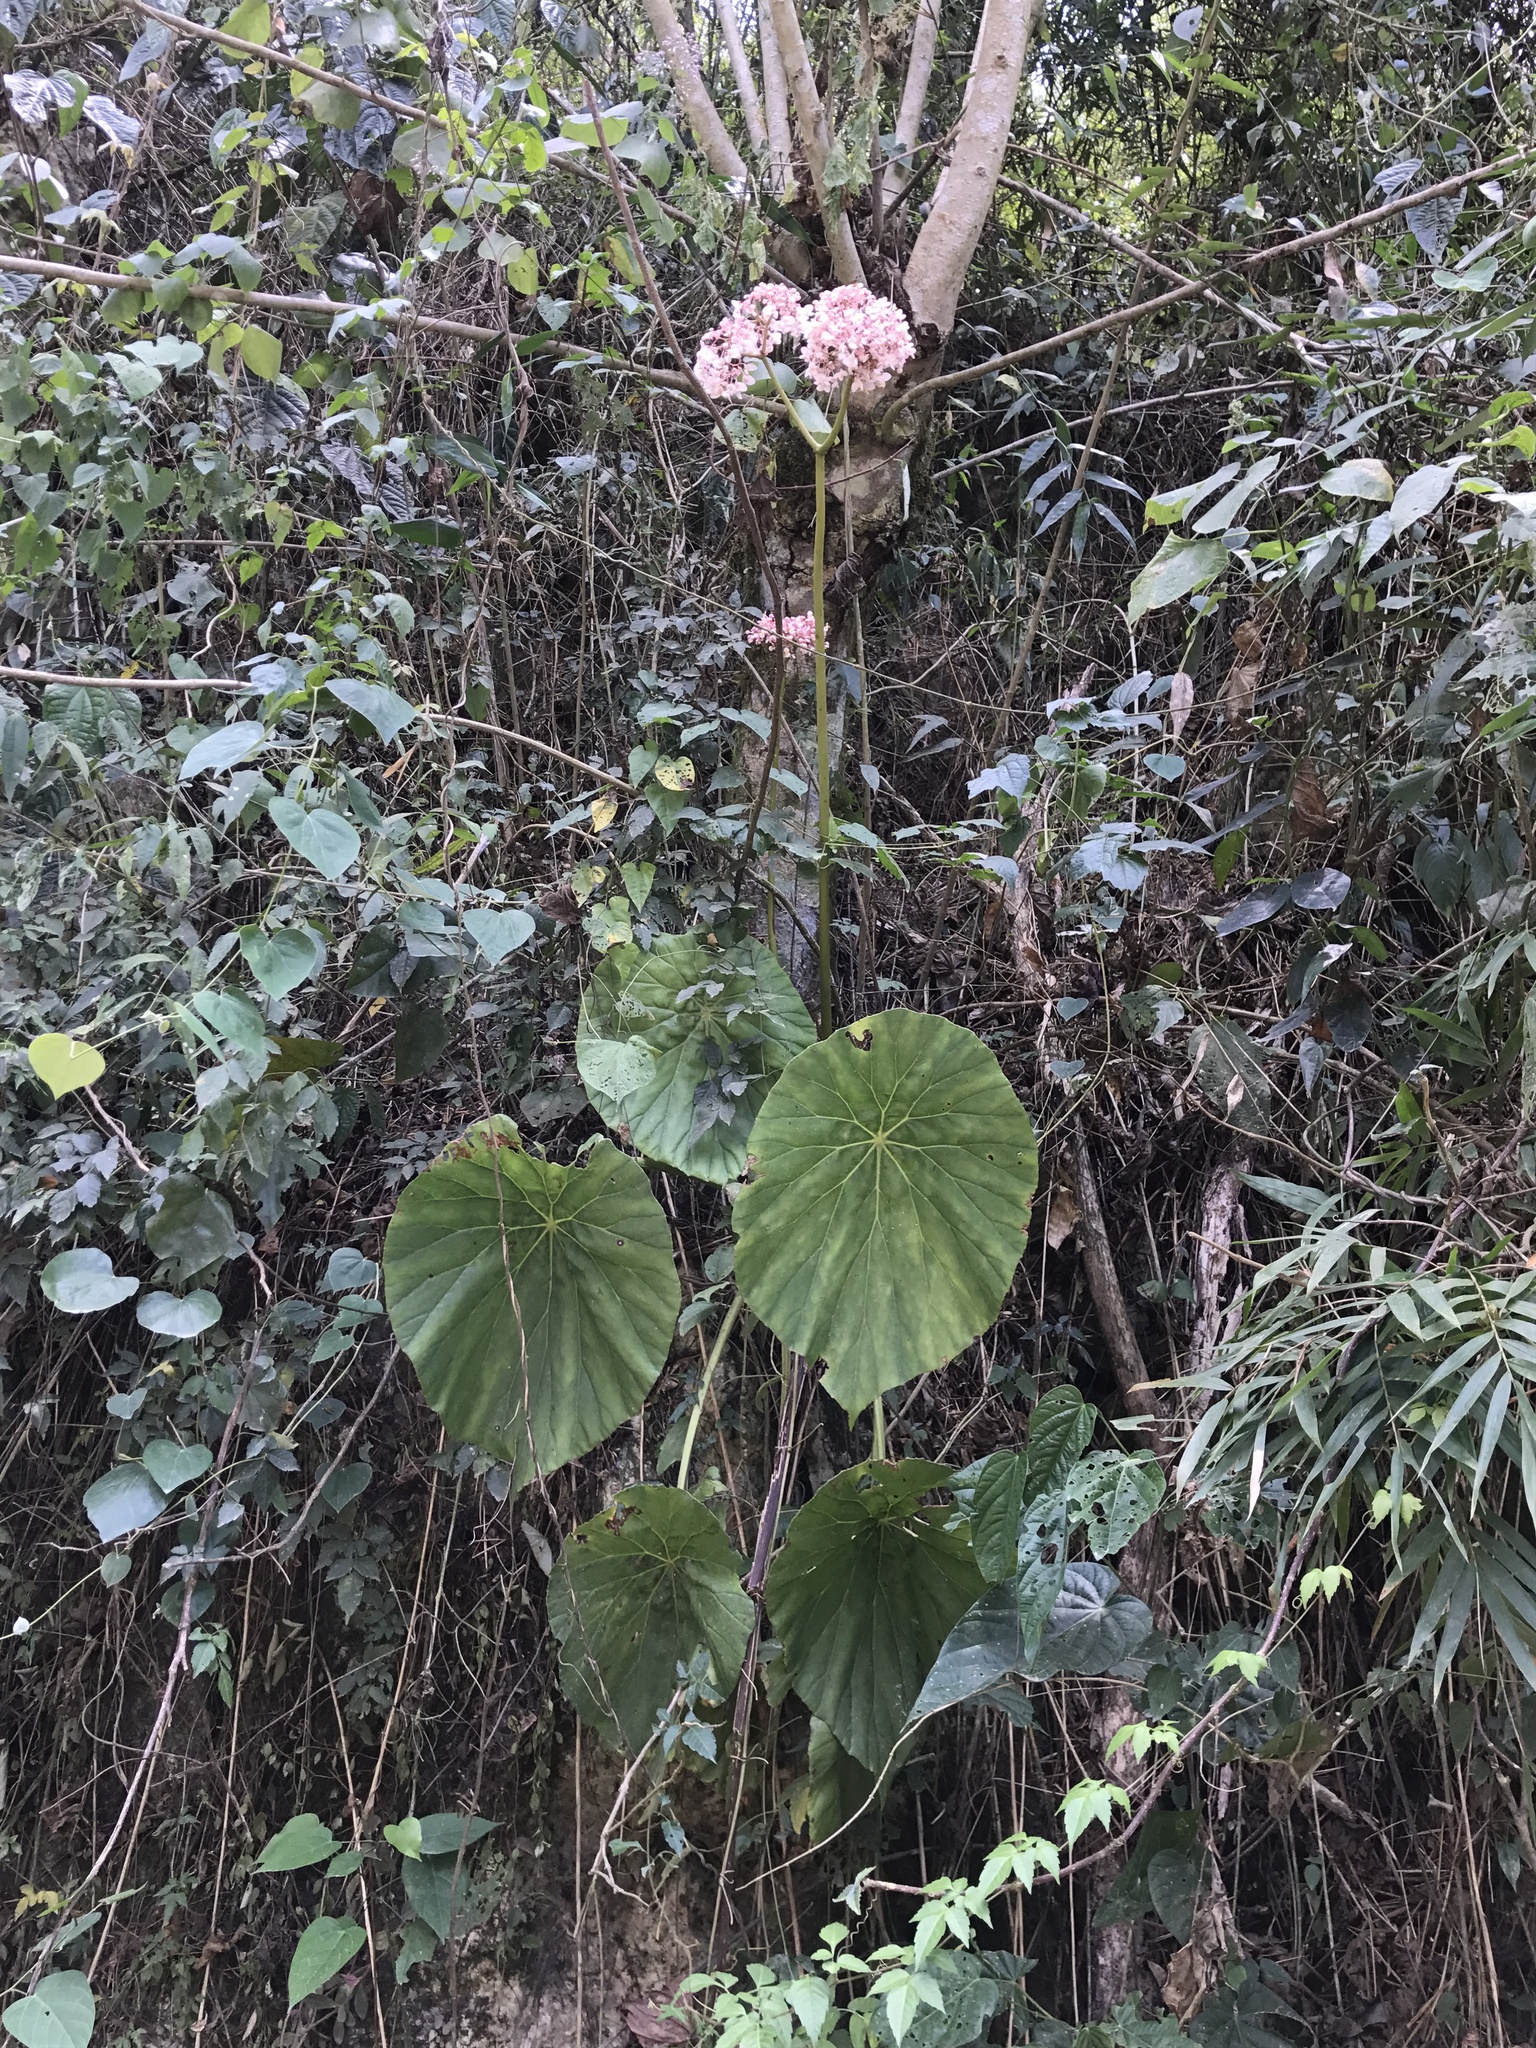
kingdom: Plantae
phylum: Tracheophyta
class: Magnoliopsida
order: Cucurbitales
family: Begoniaceae
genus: Begonia
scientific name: Begonia nelumbiifolia
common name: Lilypad begonia
